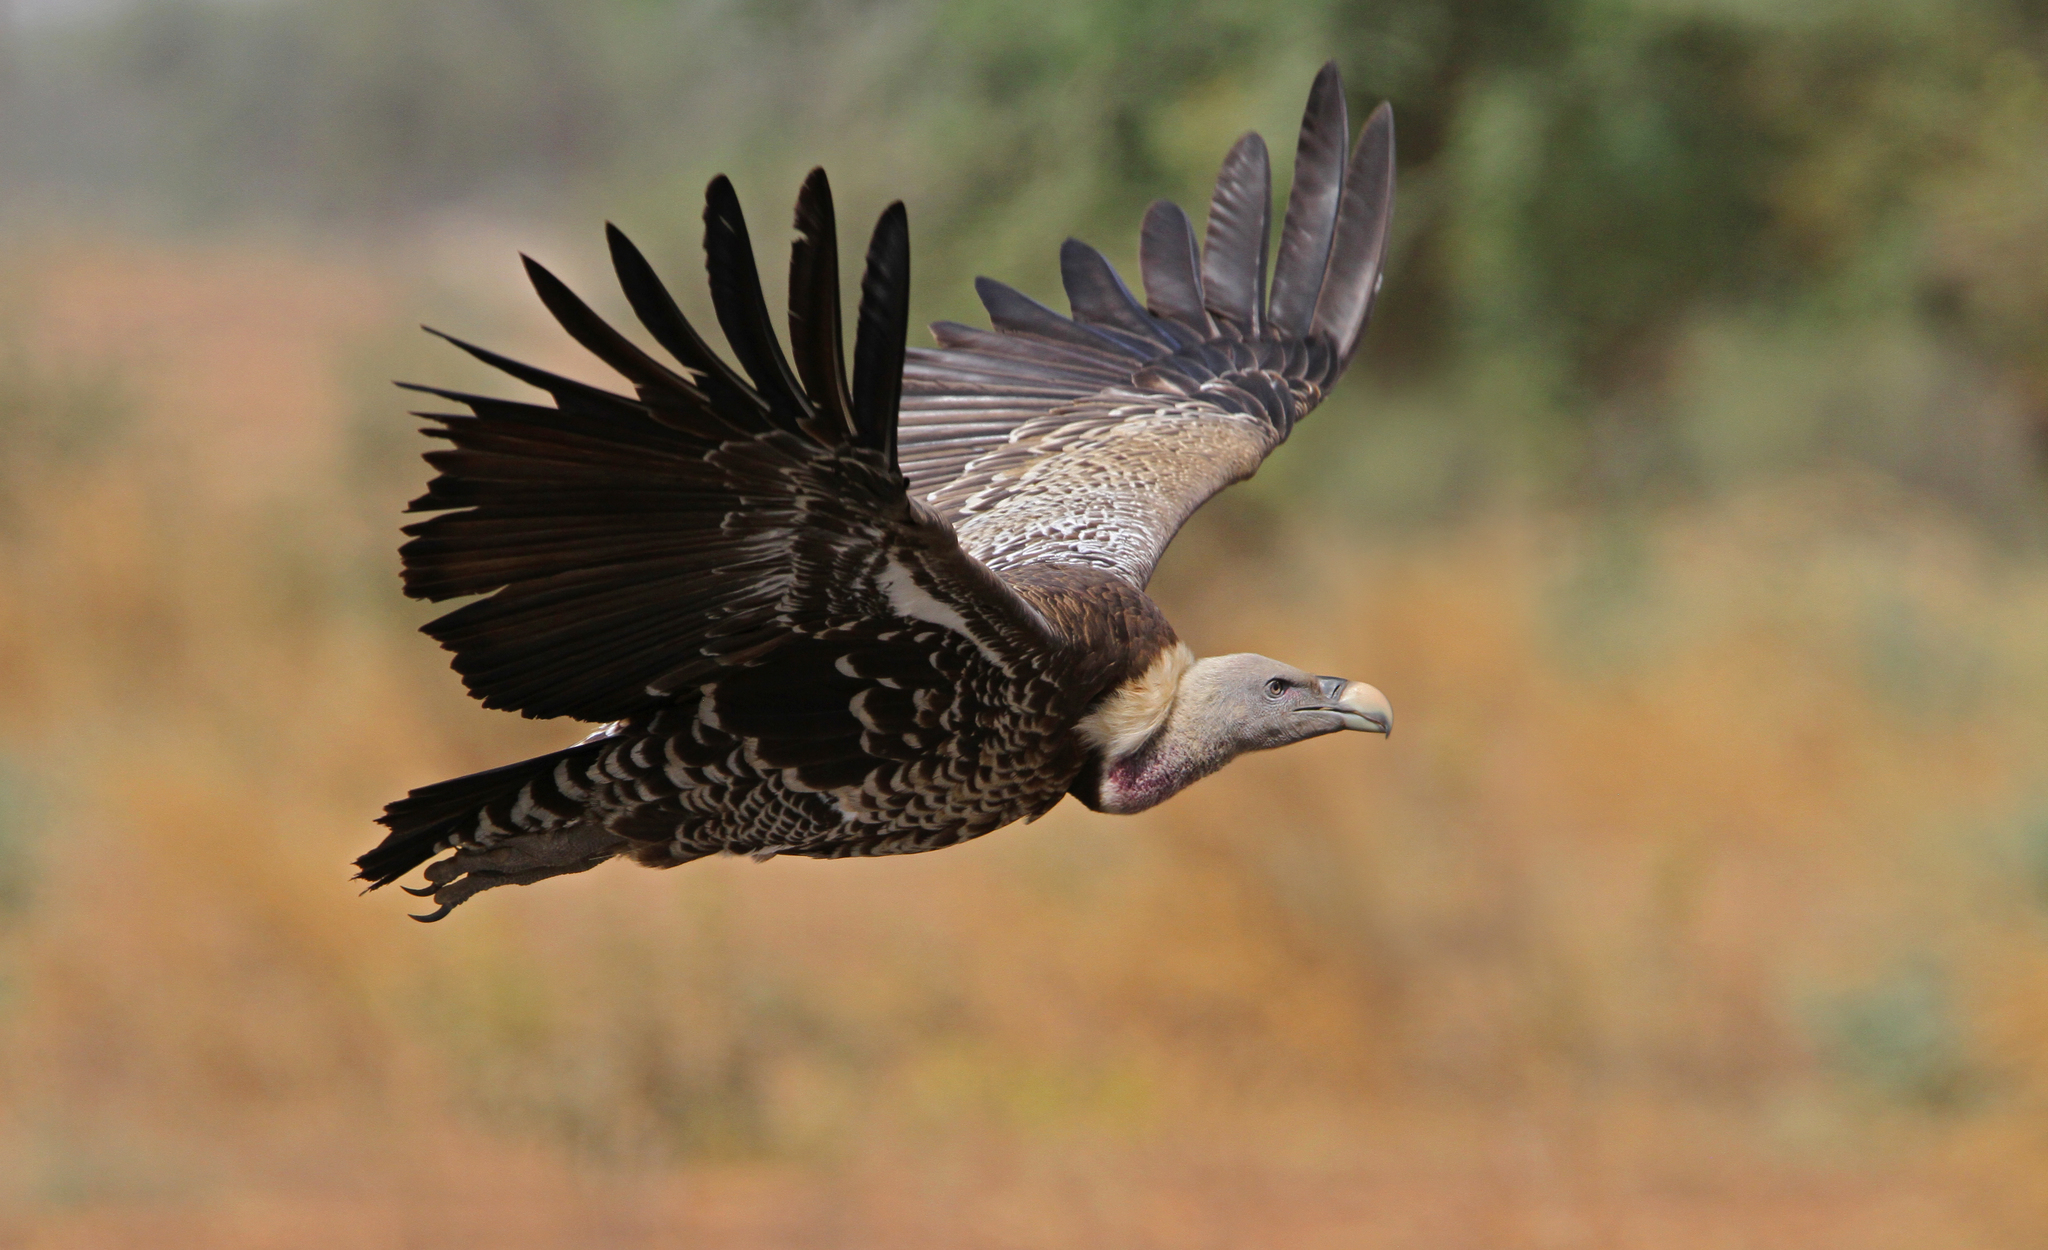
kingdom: Animalia
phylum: Chordata
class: Aves
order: Accipitriformes
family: Accipitridae
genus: Gyps
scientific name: Gyps rueppellii
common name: Rüppell's vulture
